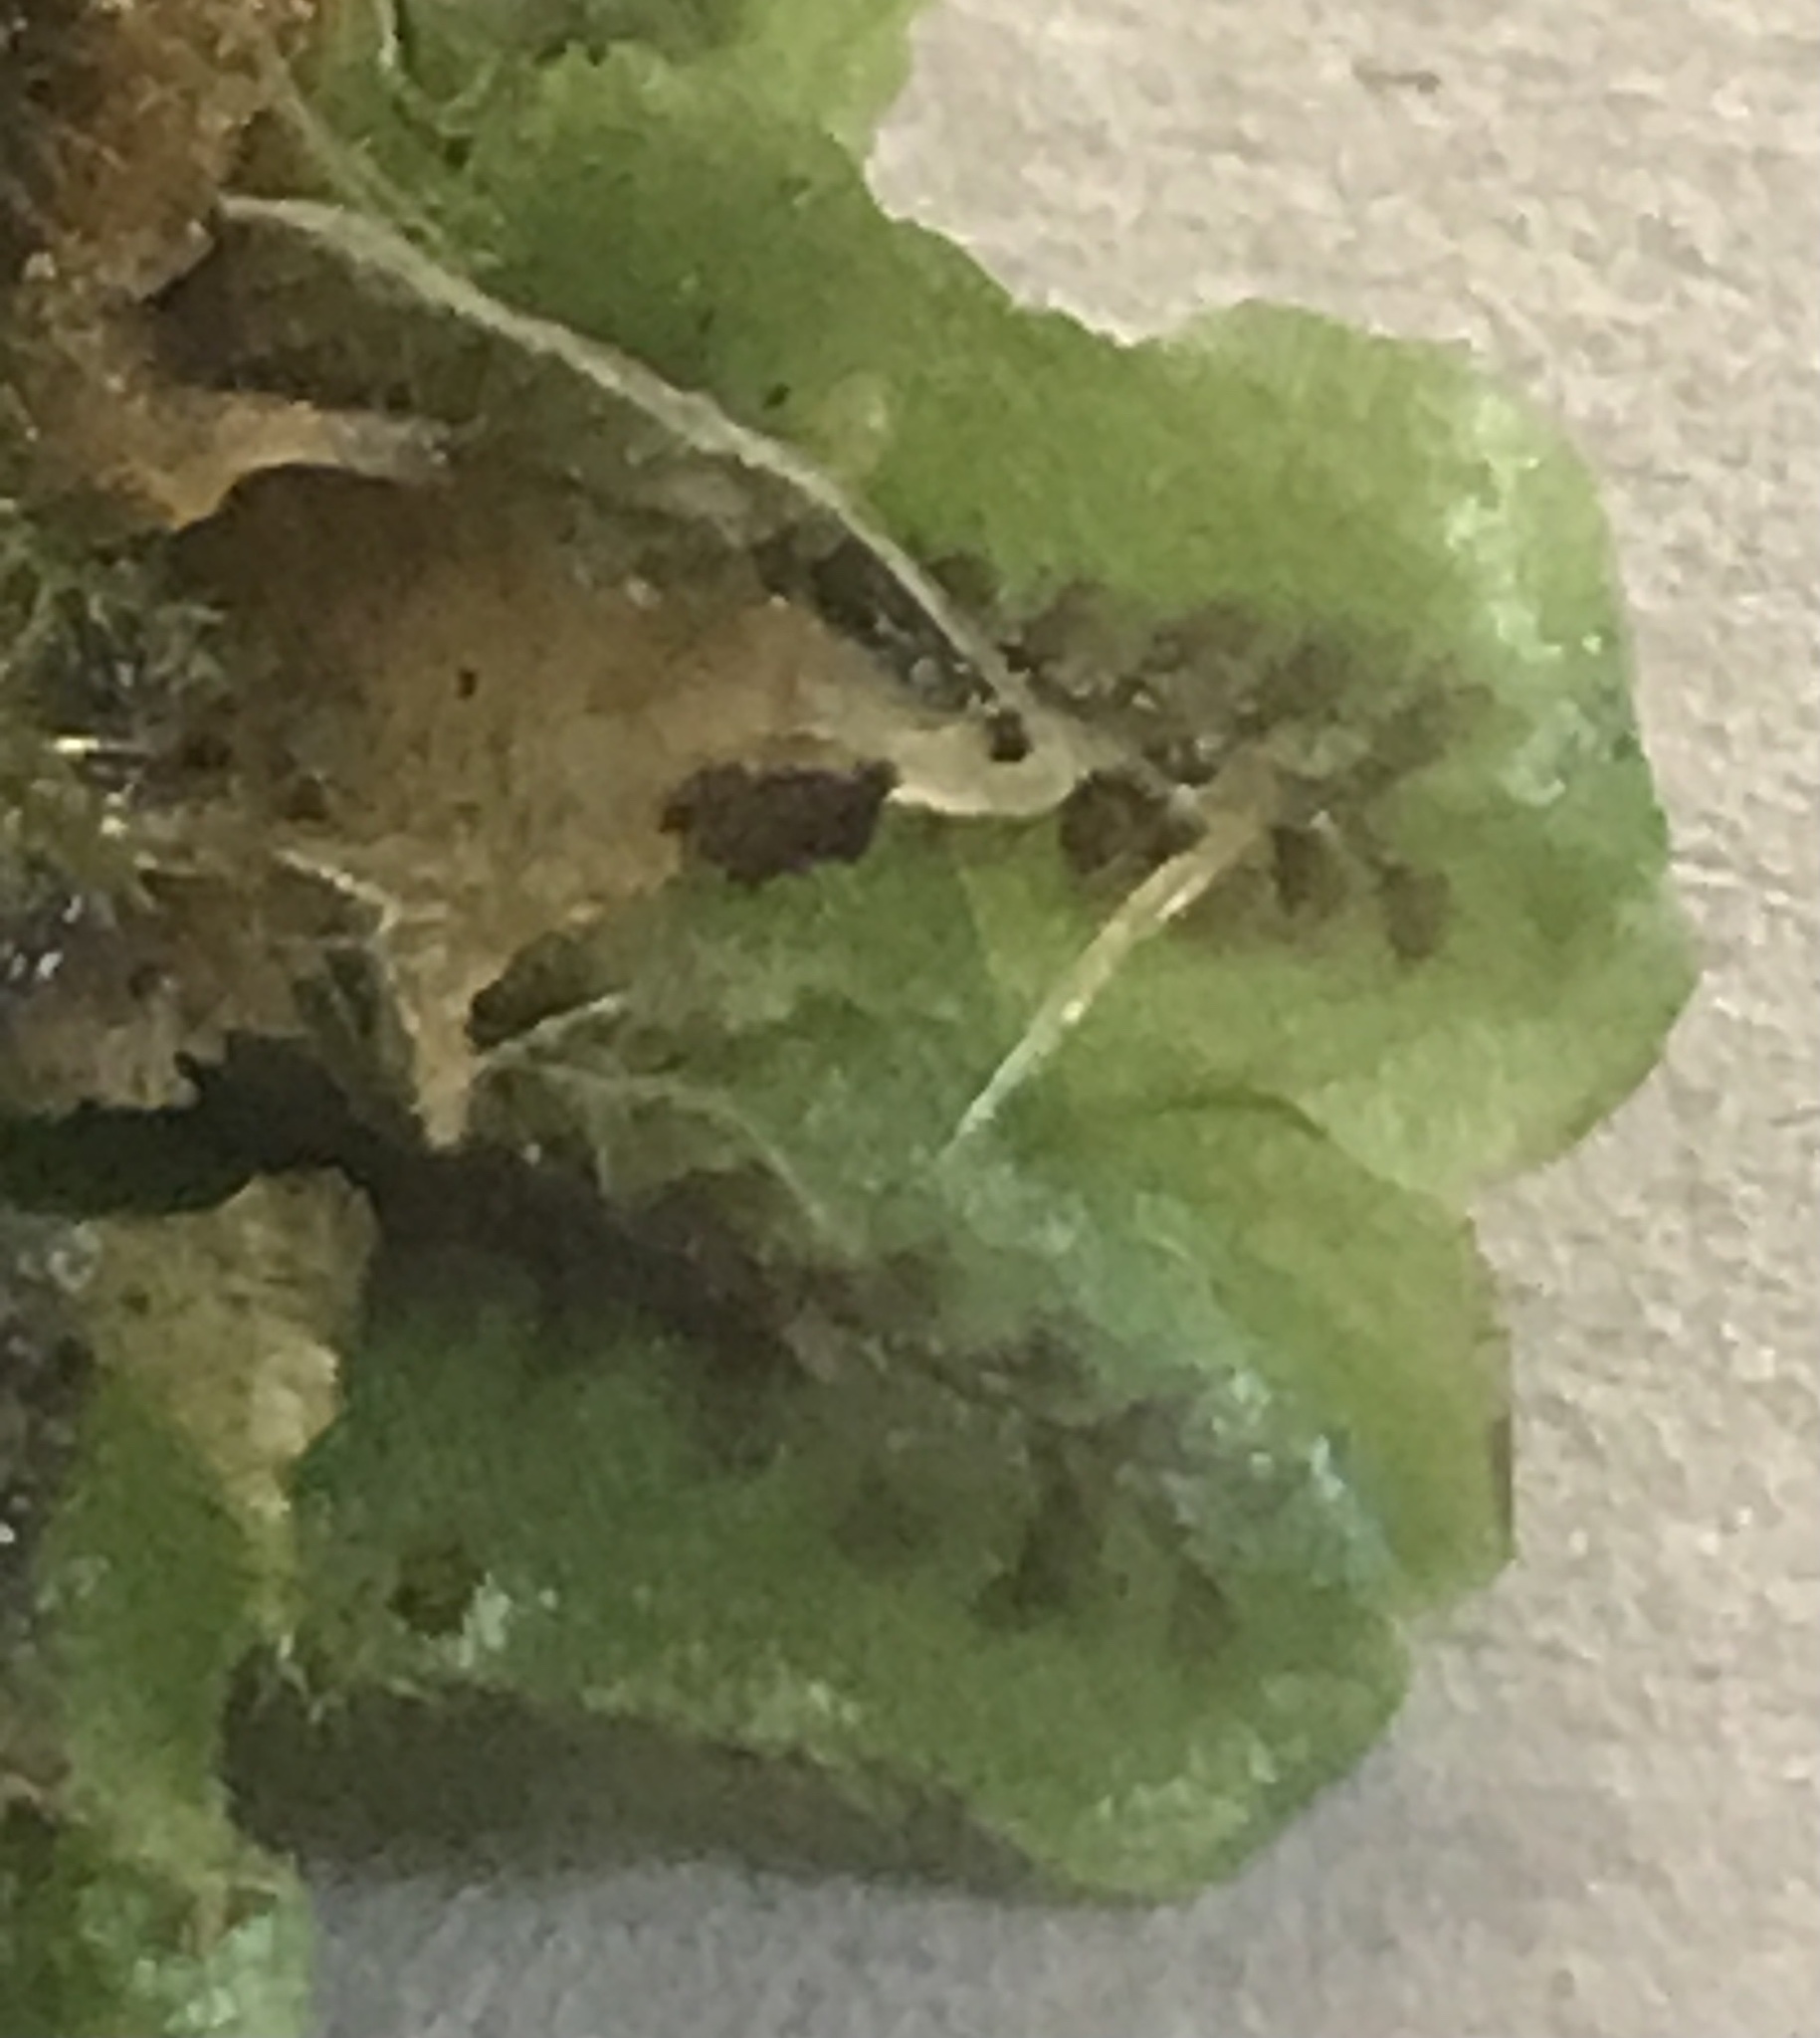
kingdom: Plantae
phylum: Marchantiophyta
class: Marchantiopsida
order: Marchantiales
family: Marchantiaceae
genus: Marchantia
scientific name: Marchantia quadrata
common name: Narrow mushroom-headed liverwort
